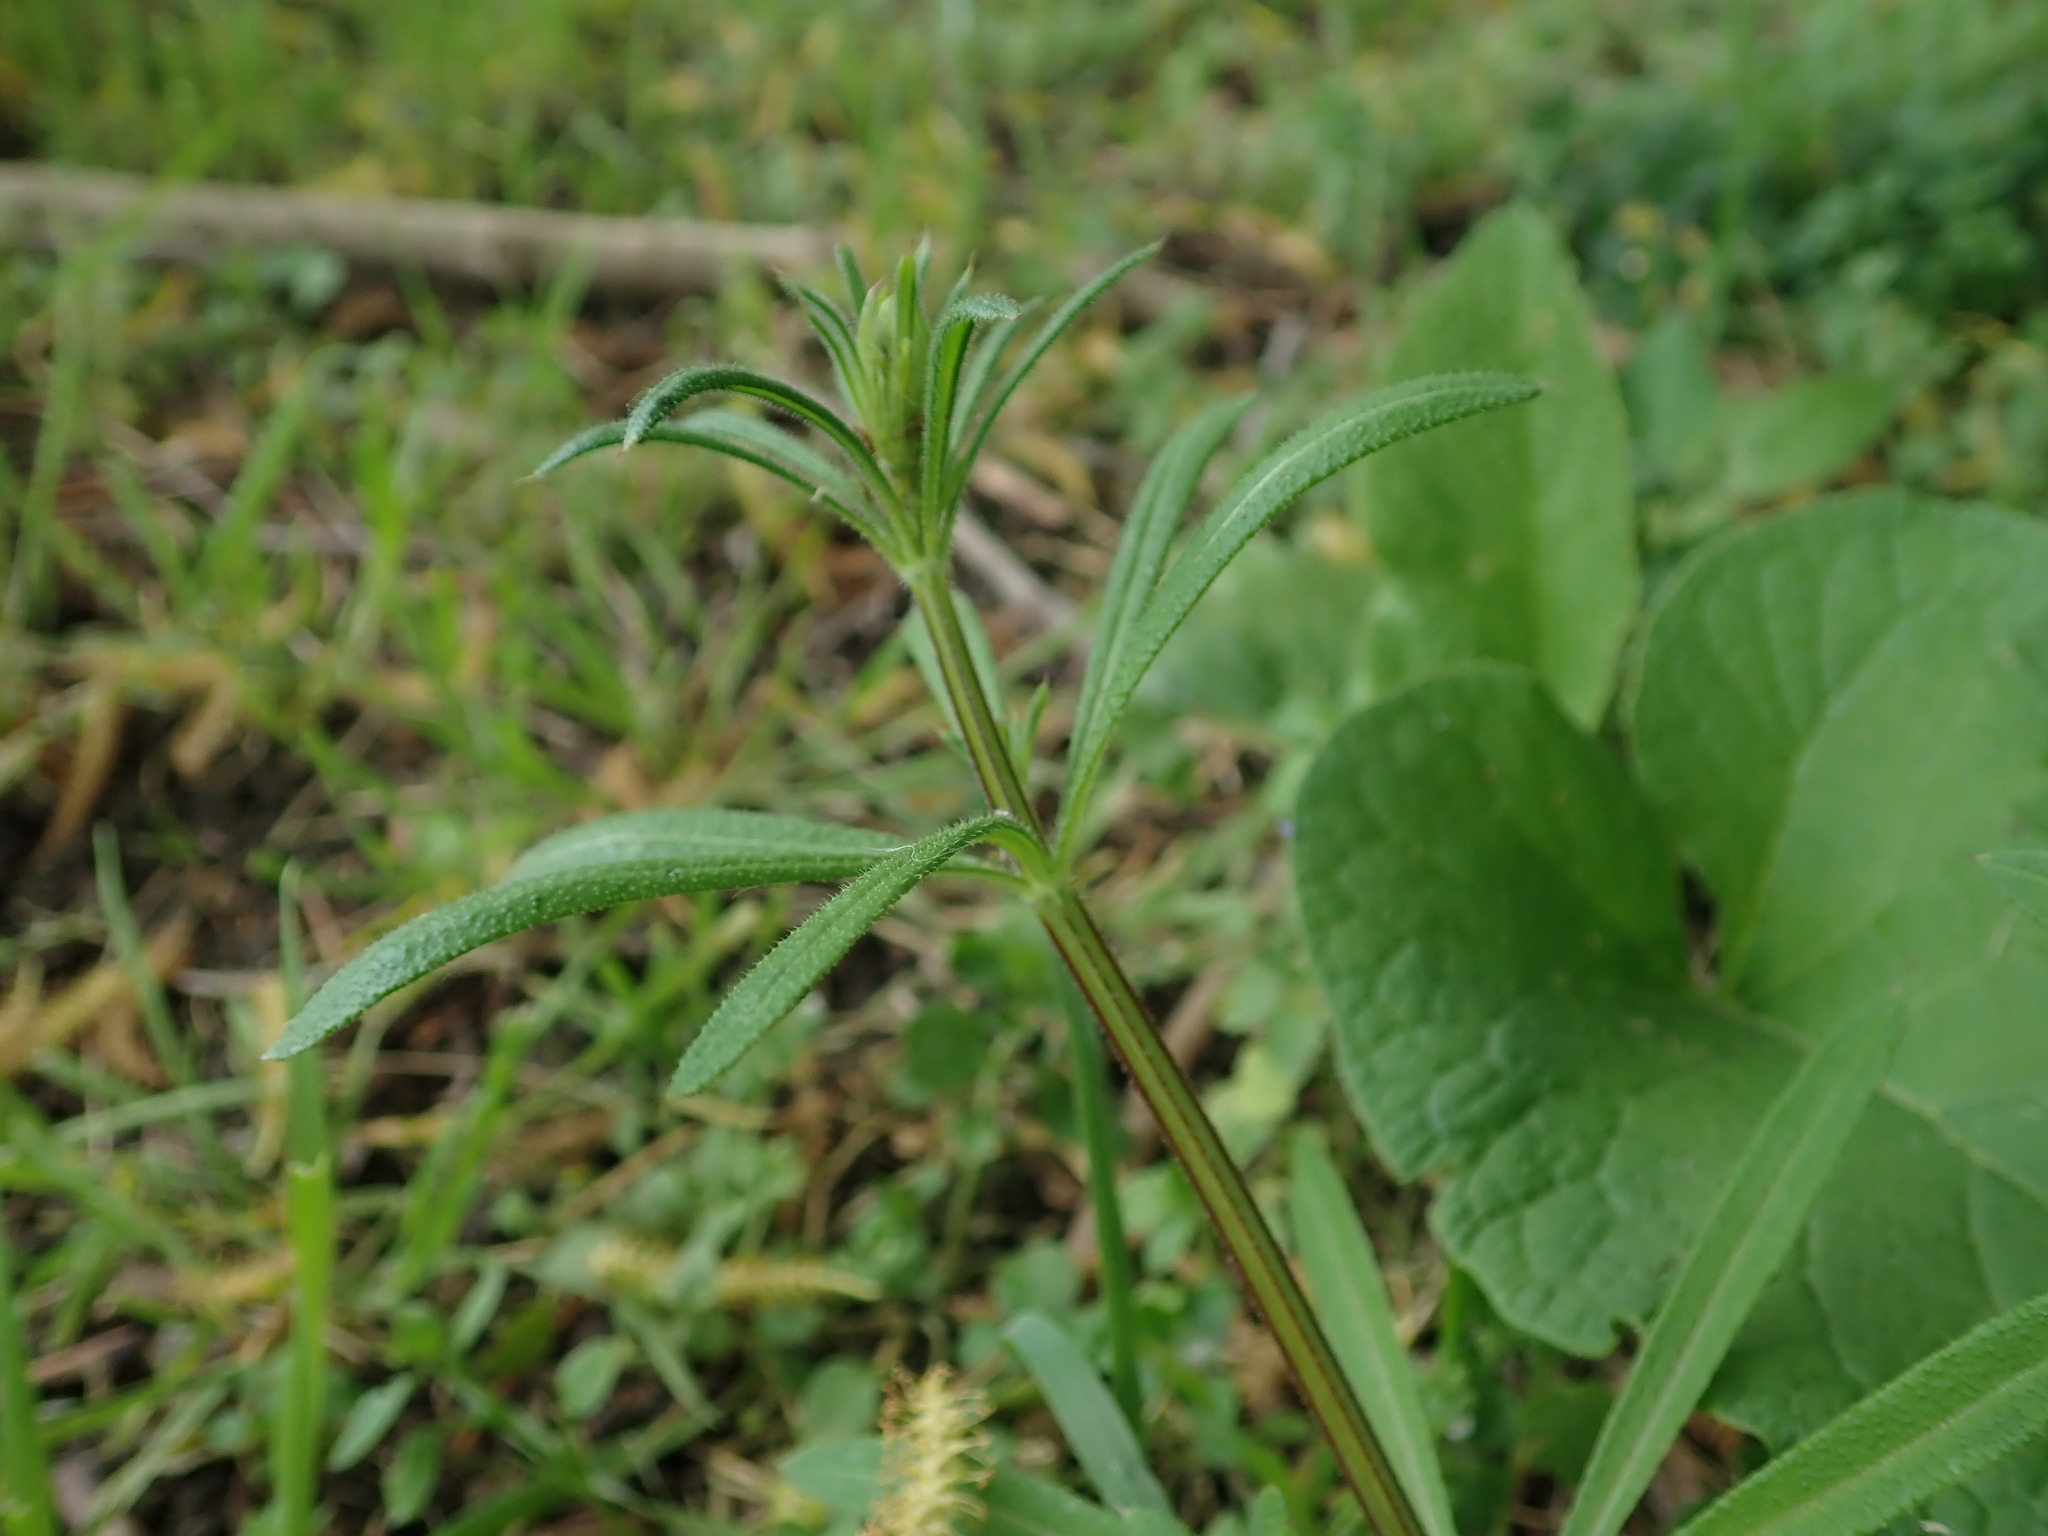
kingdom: Plantae
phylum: Tracheophyta
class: Magnoliopsida
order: Gentianales
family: Rubiaceae
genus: Galium
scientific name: Galium aparine
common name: Cleavers
